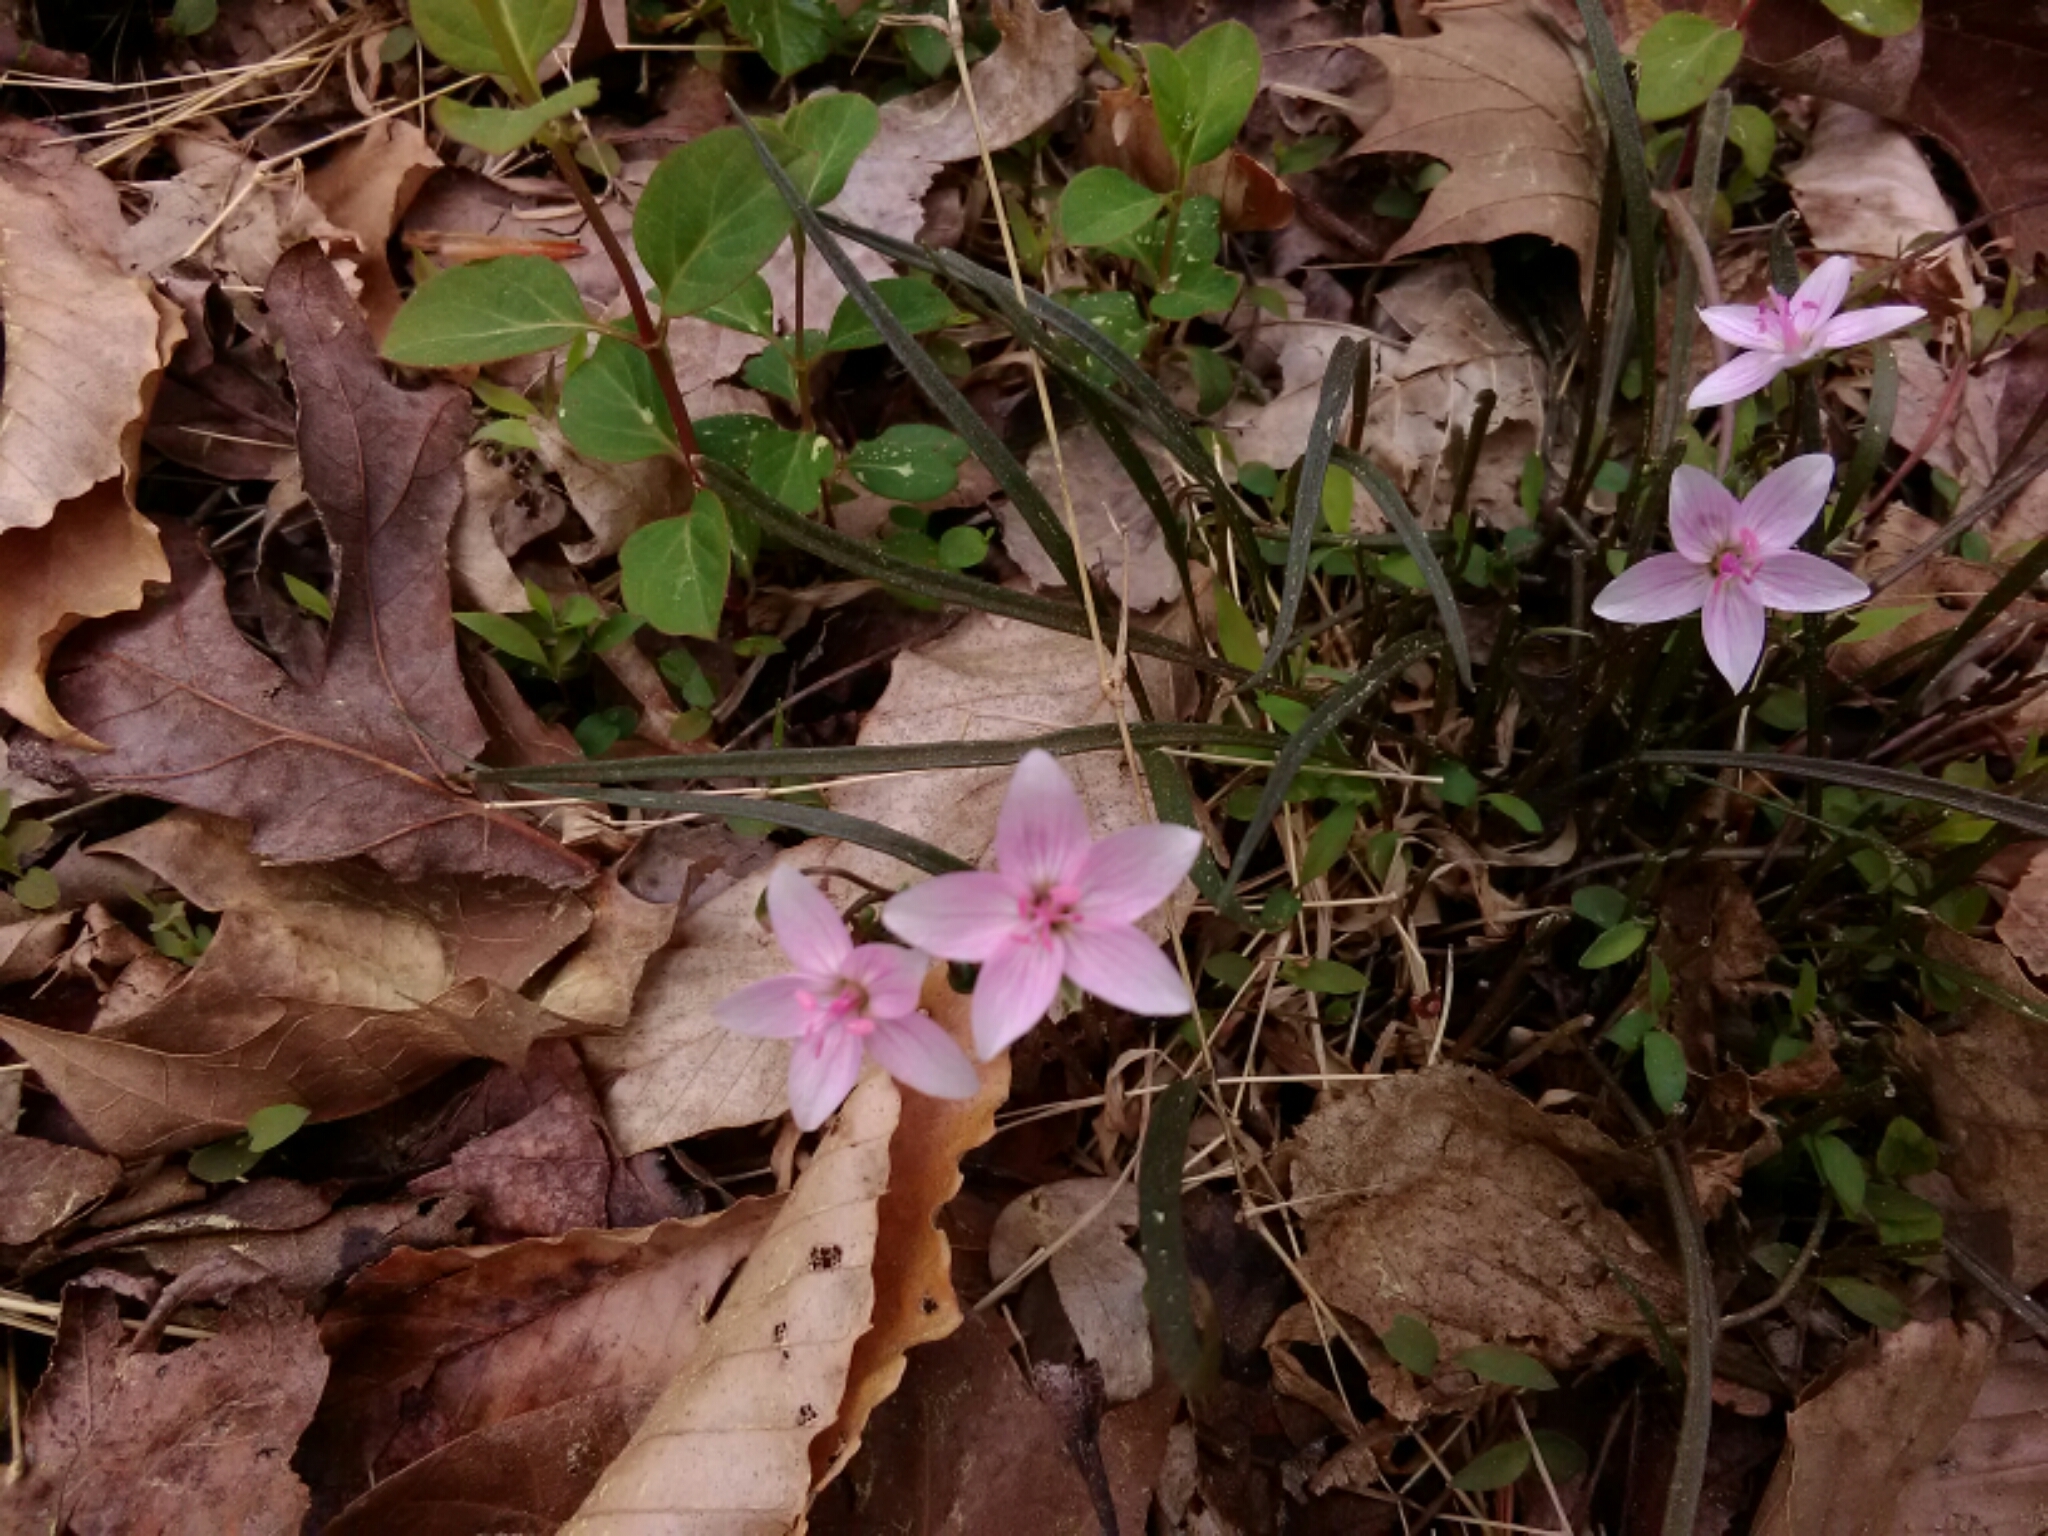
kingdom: Plantae
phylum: Tracheophyta
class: Magnoliopsida
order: Caryophyllales
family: Montiaceae
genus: Claytonia
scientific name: Claytonia virginica
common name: Virginia springbeauty
